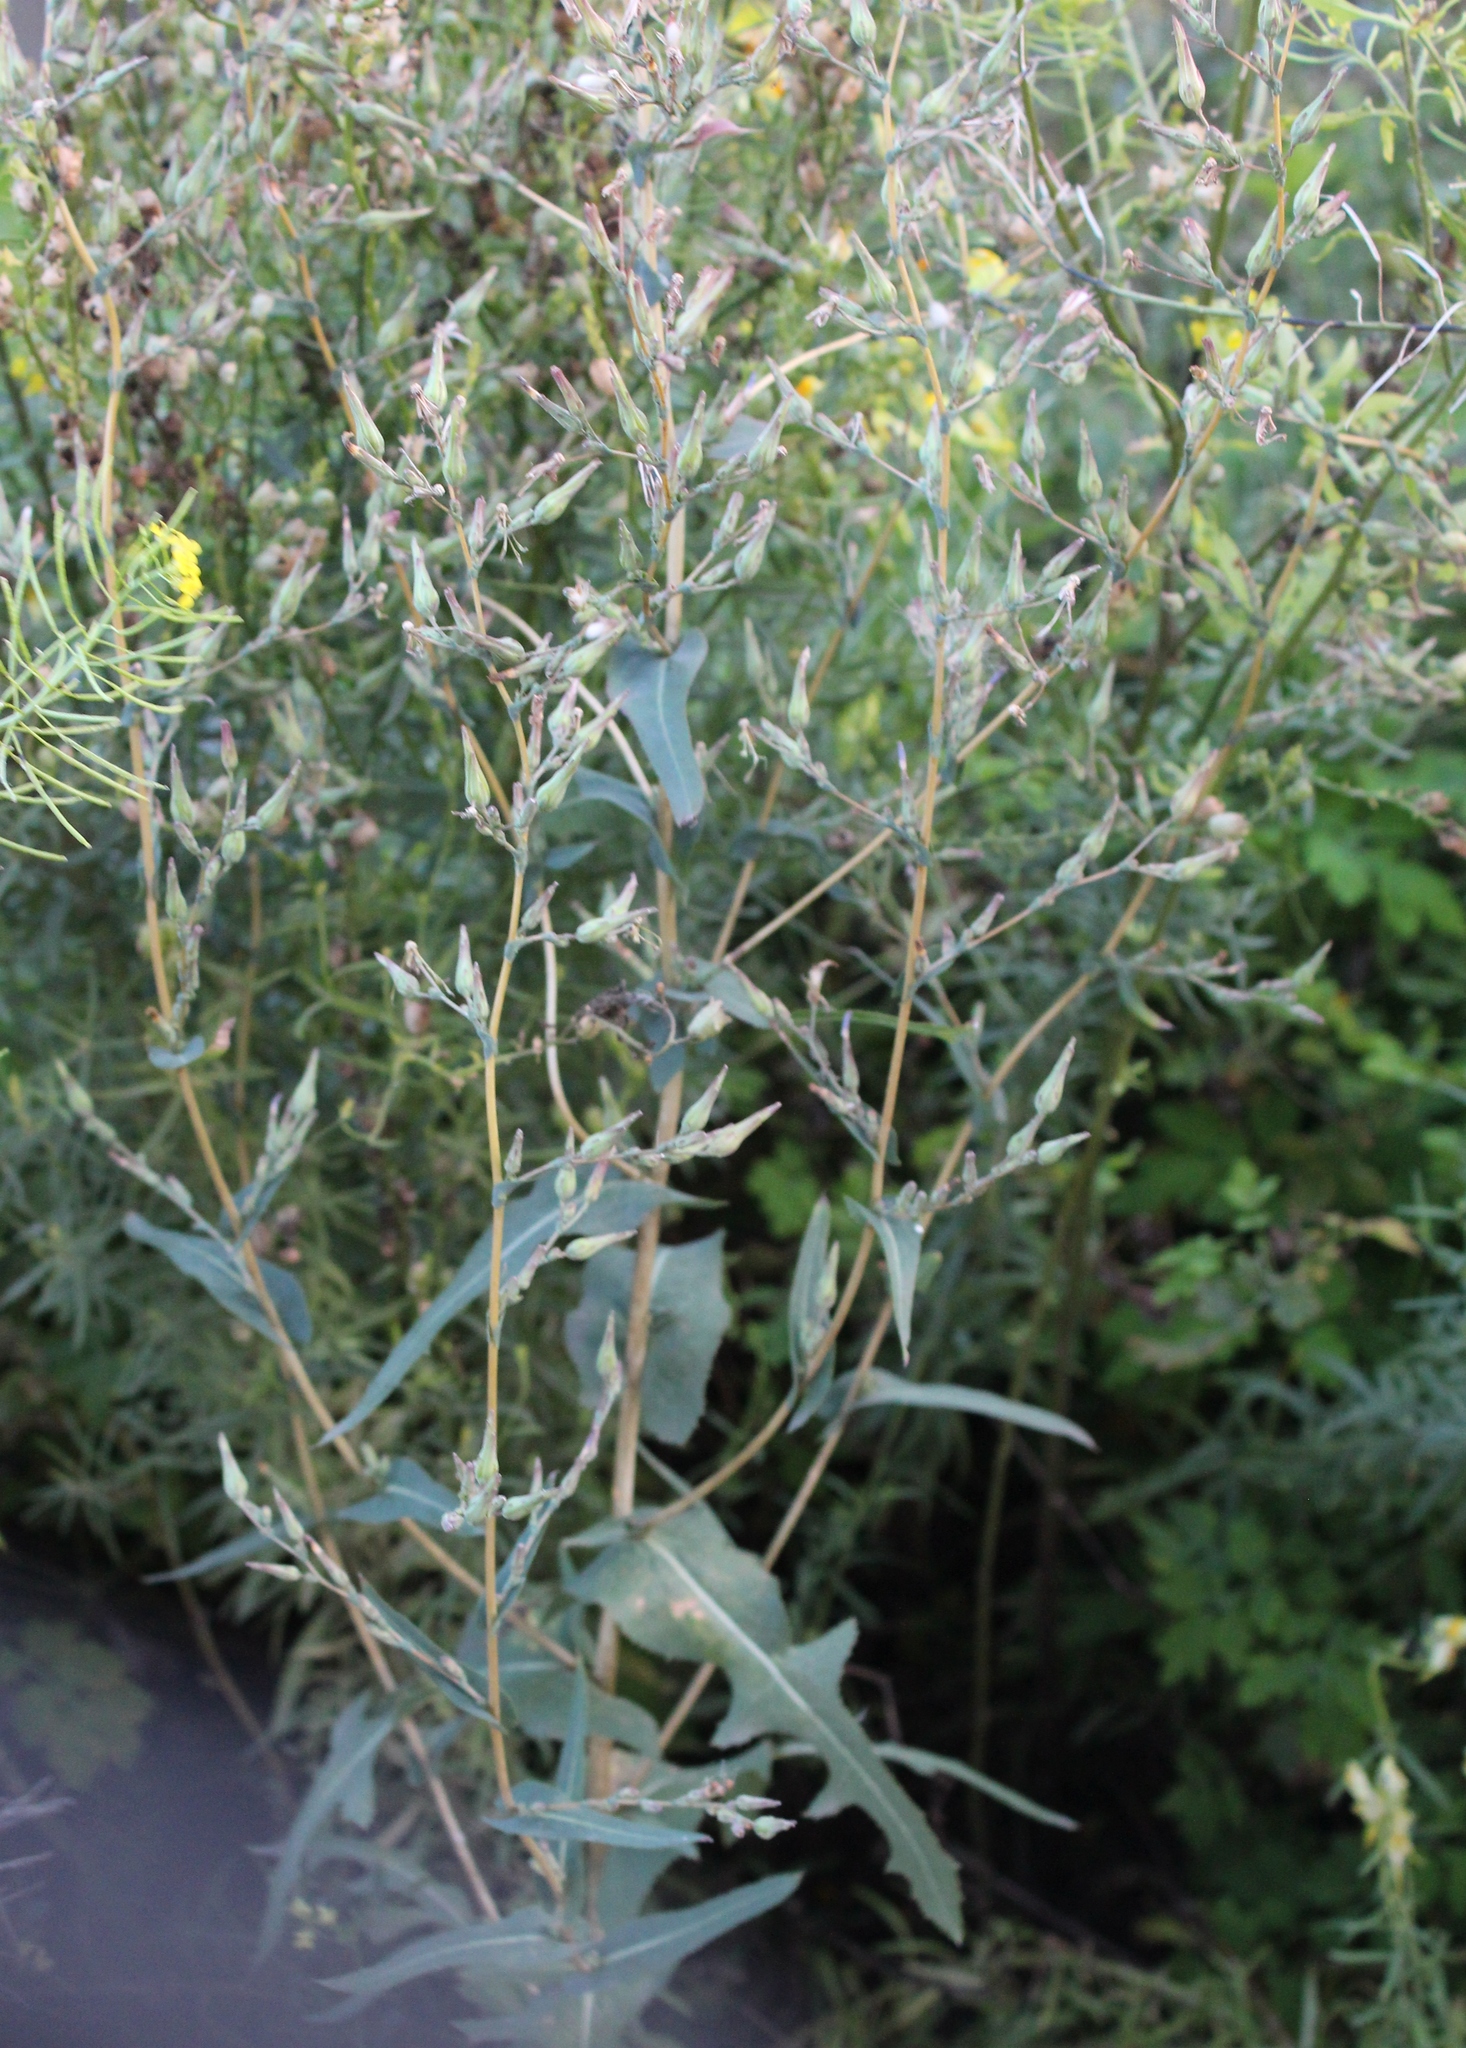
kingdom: Plantae
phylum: Tracheophyta
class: Magnoliopsida
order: Asterales
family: Asteraceae
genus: Lactuca
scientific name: Lactuca serriola
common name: Prickly lettuce
